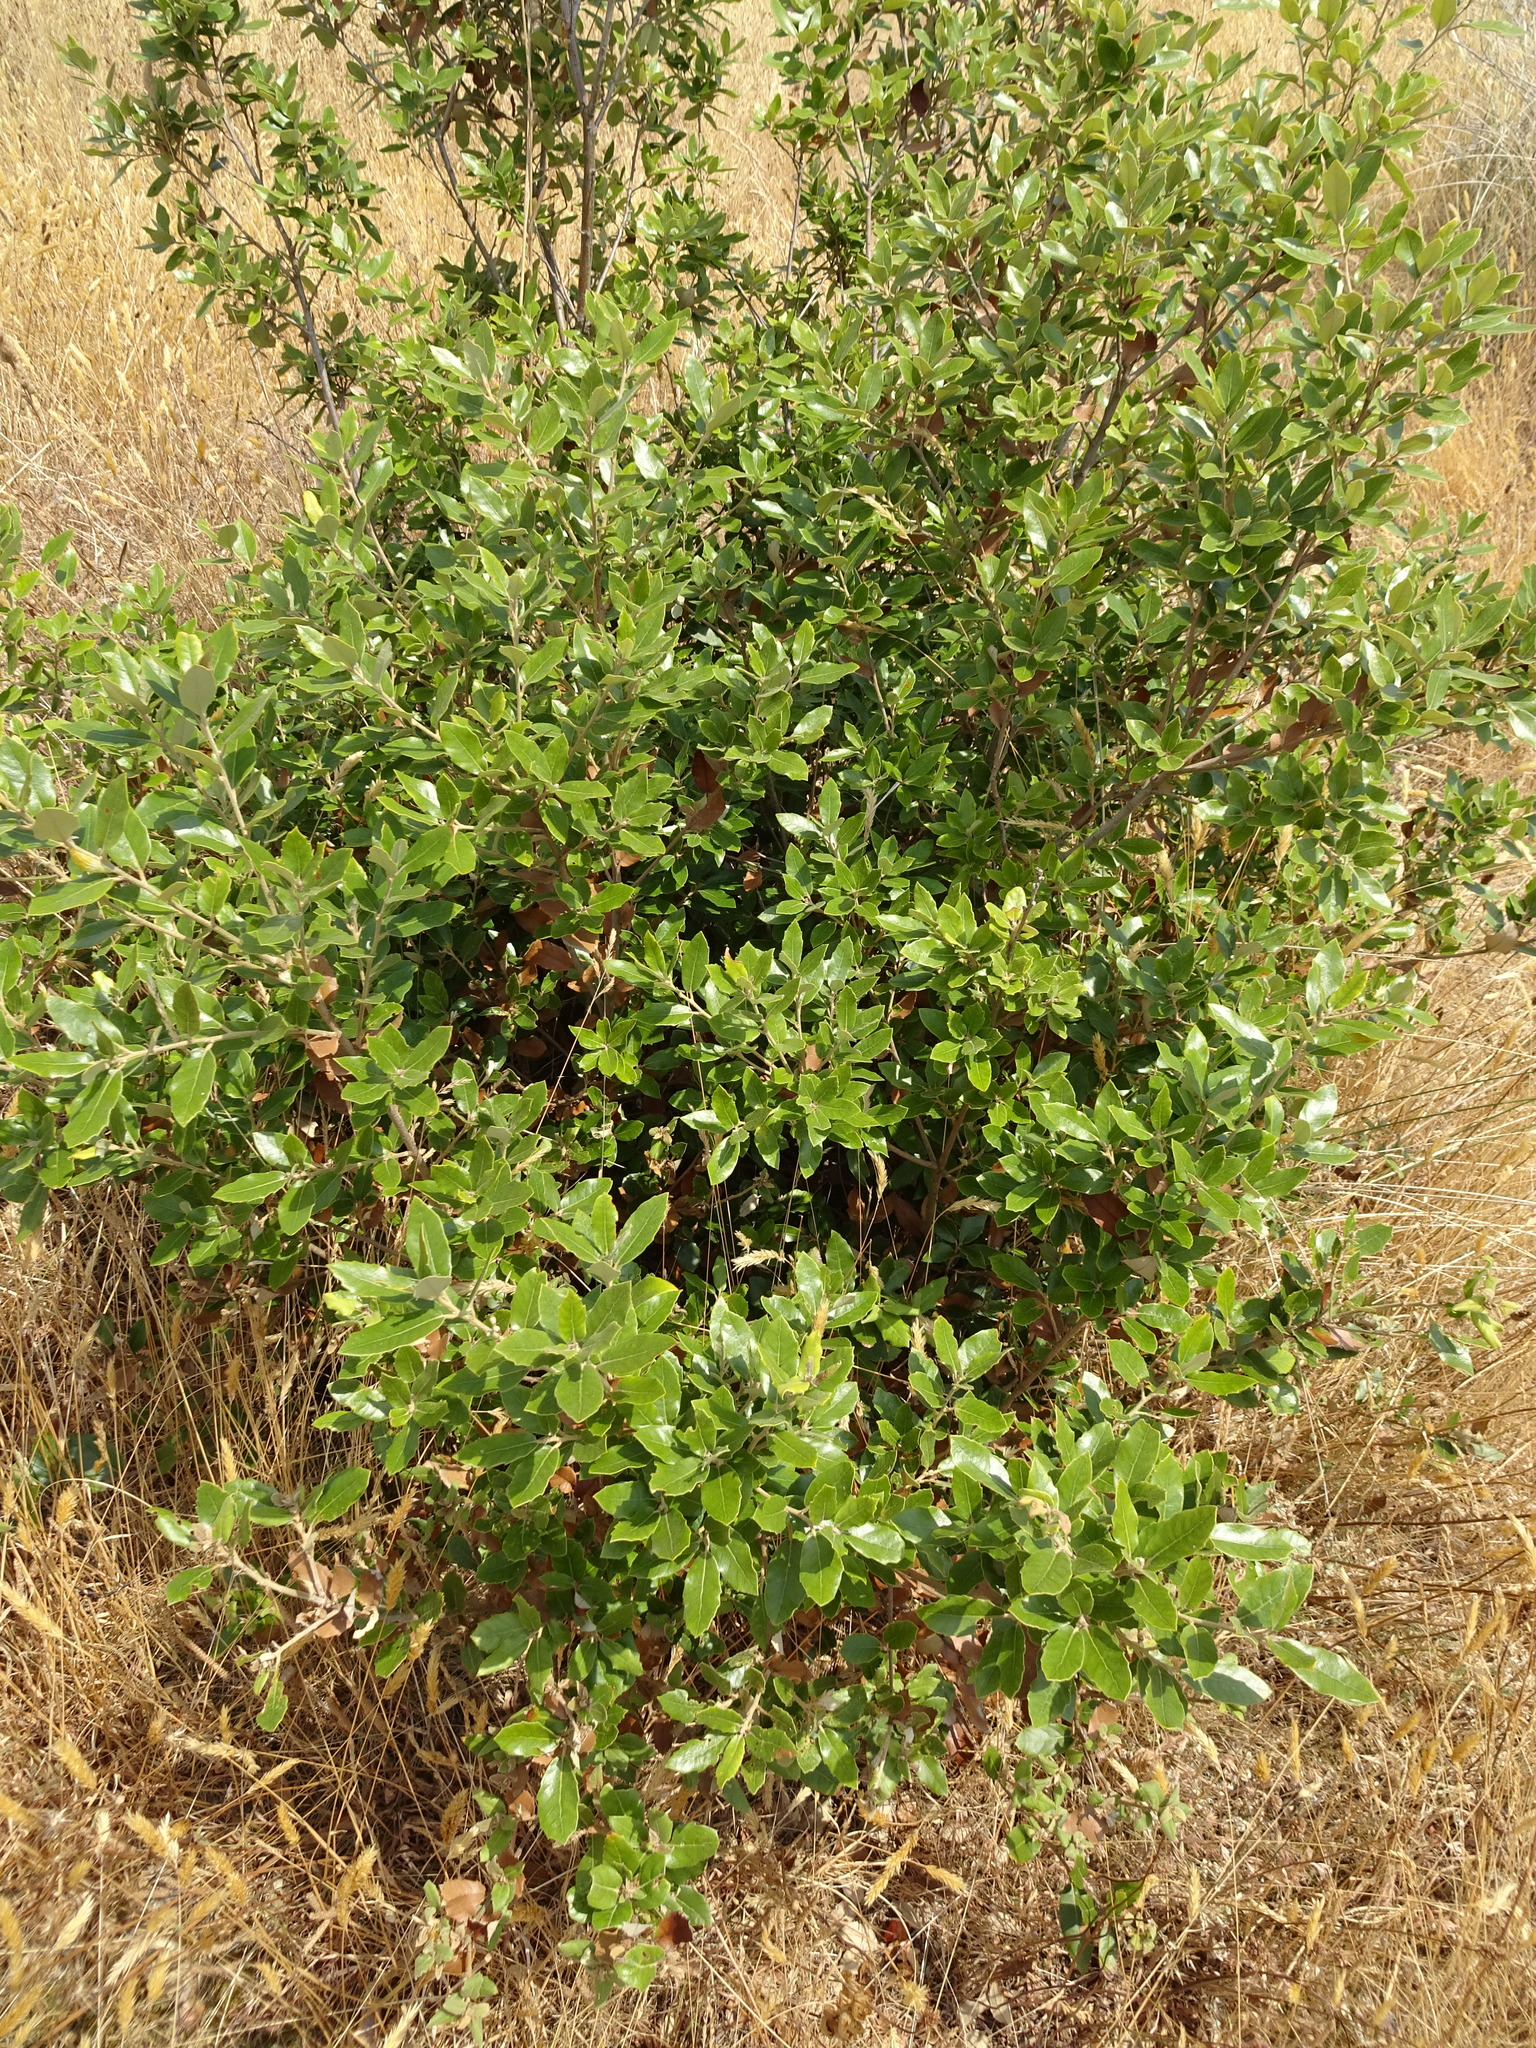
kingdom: Plantae
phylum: Tracheophyta
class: Magnoliopsida
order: Fagales
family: Fagaceae
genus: Quercus
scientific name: Quercus ilex
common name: Evergreen oak
